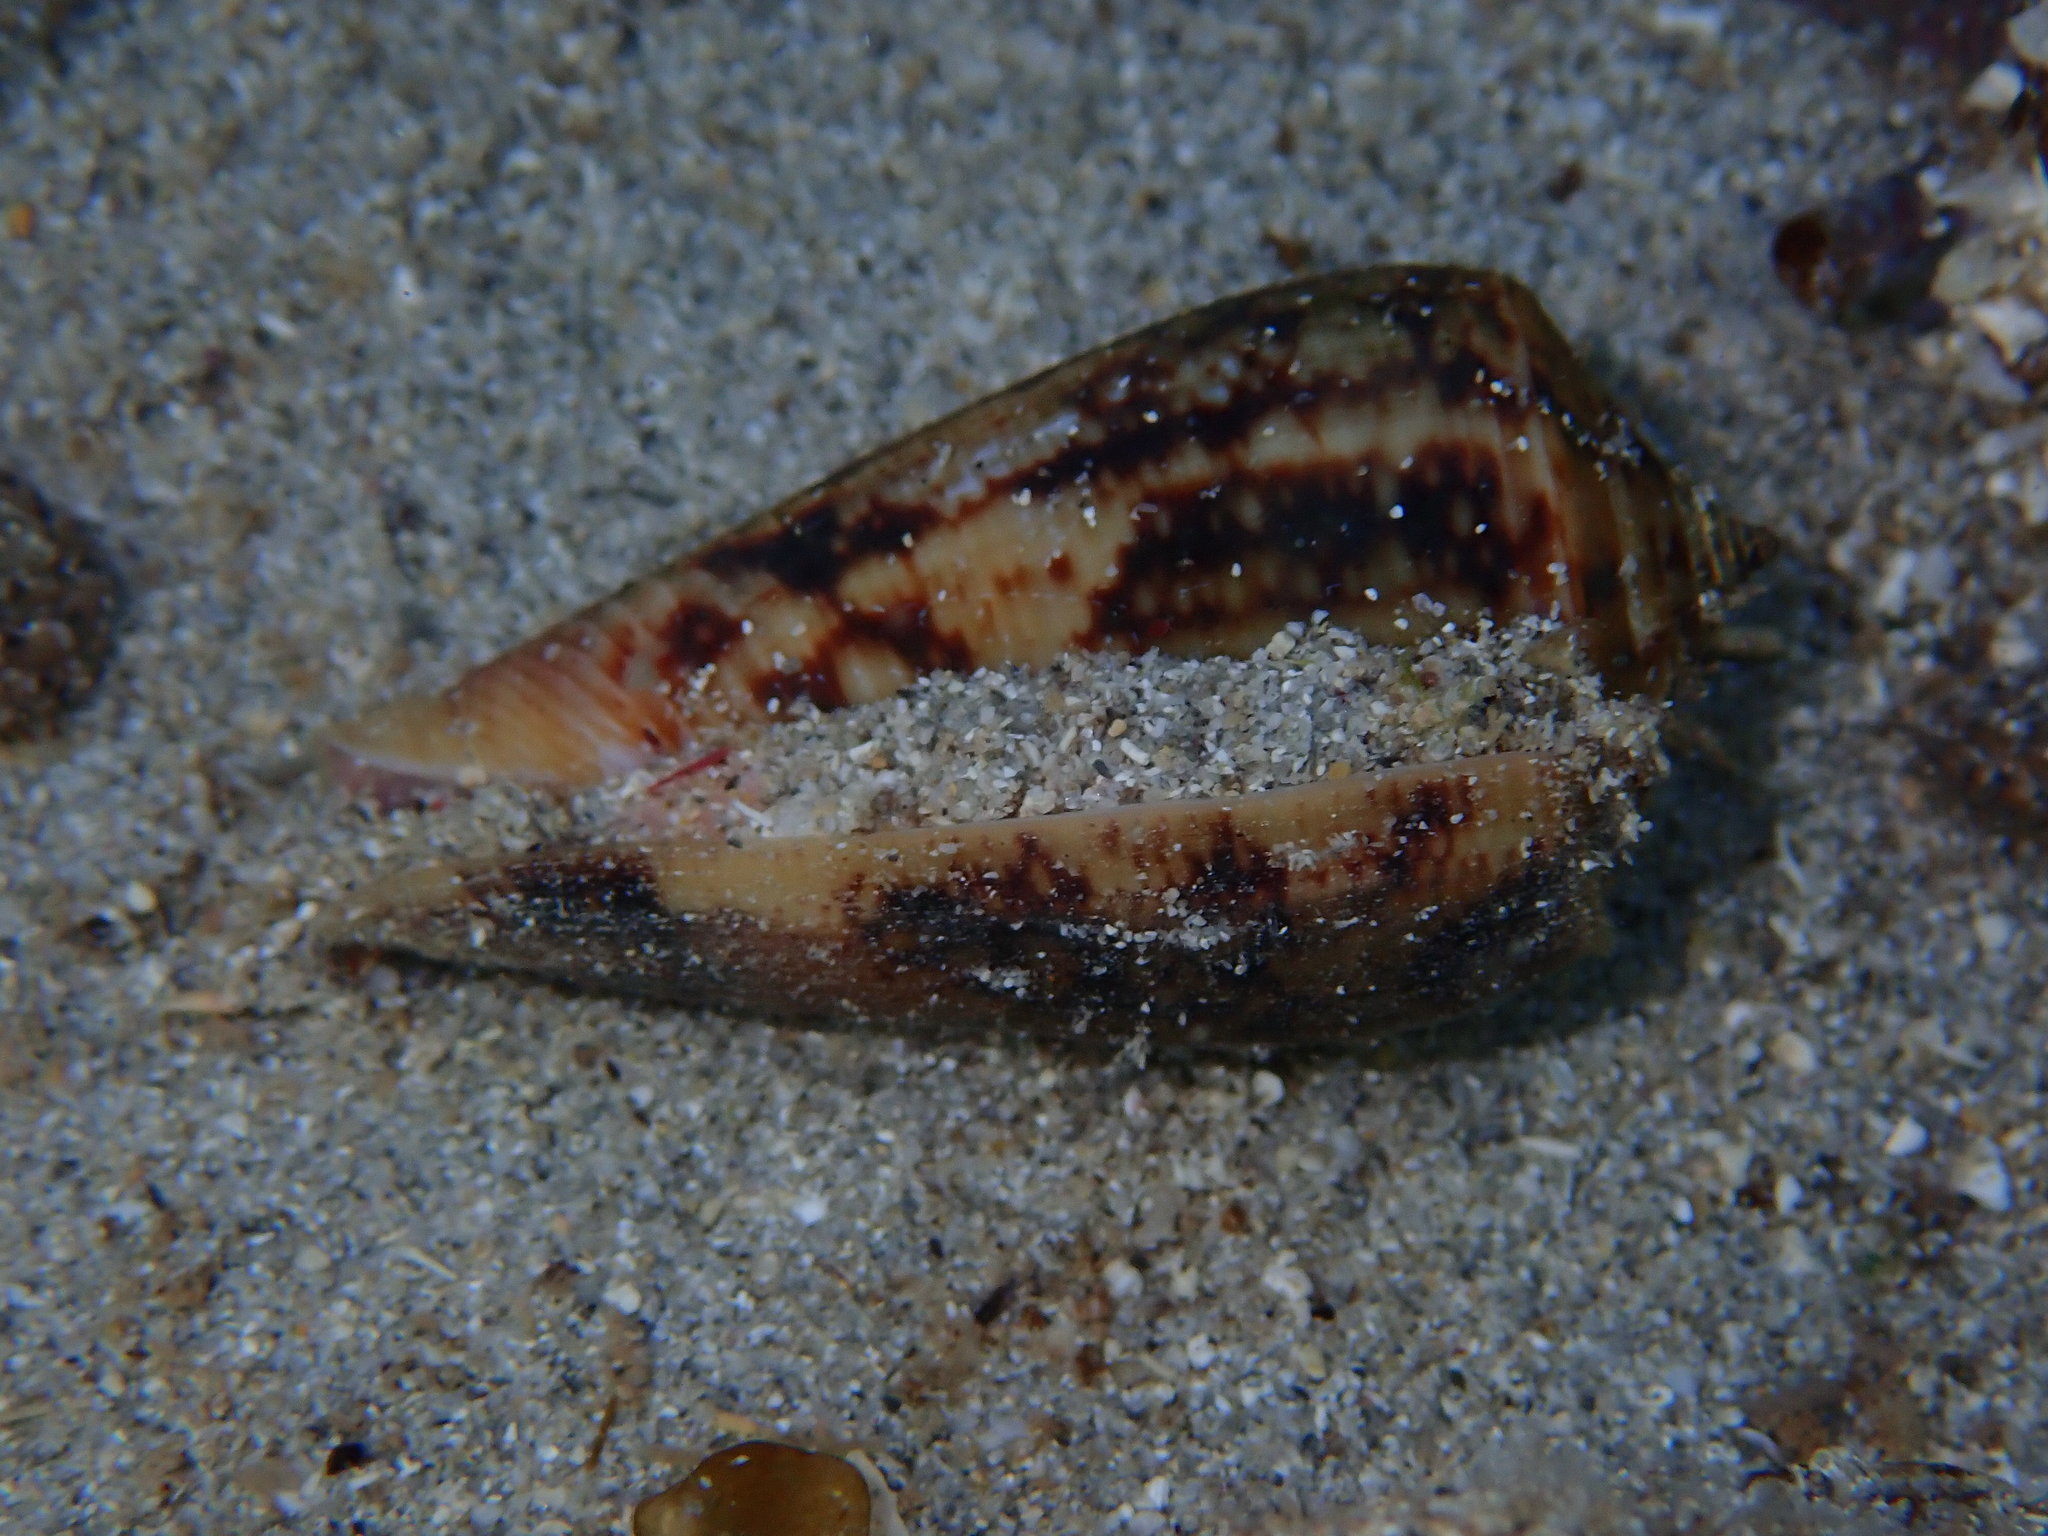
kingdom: Animalia
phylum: Mollusca
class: Gastropoda
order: Neogastropoda
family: Conidae
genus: Conus
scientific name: Conus anemone
